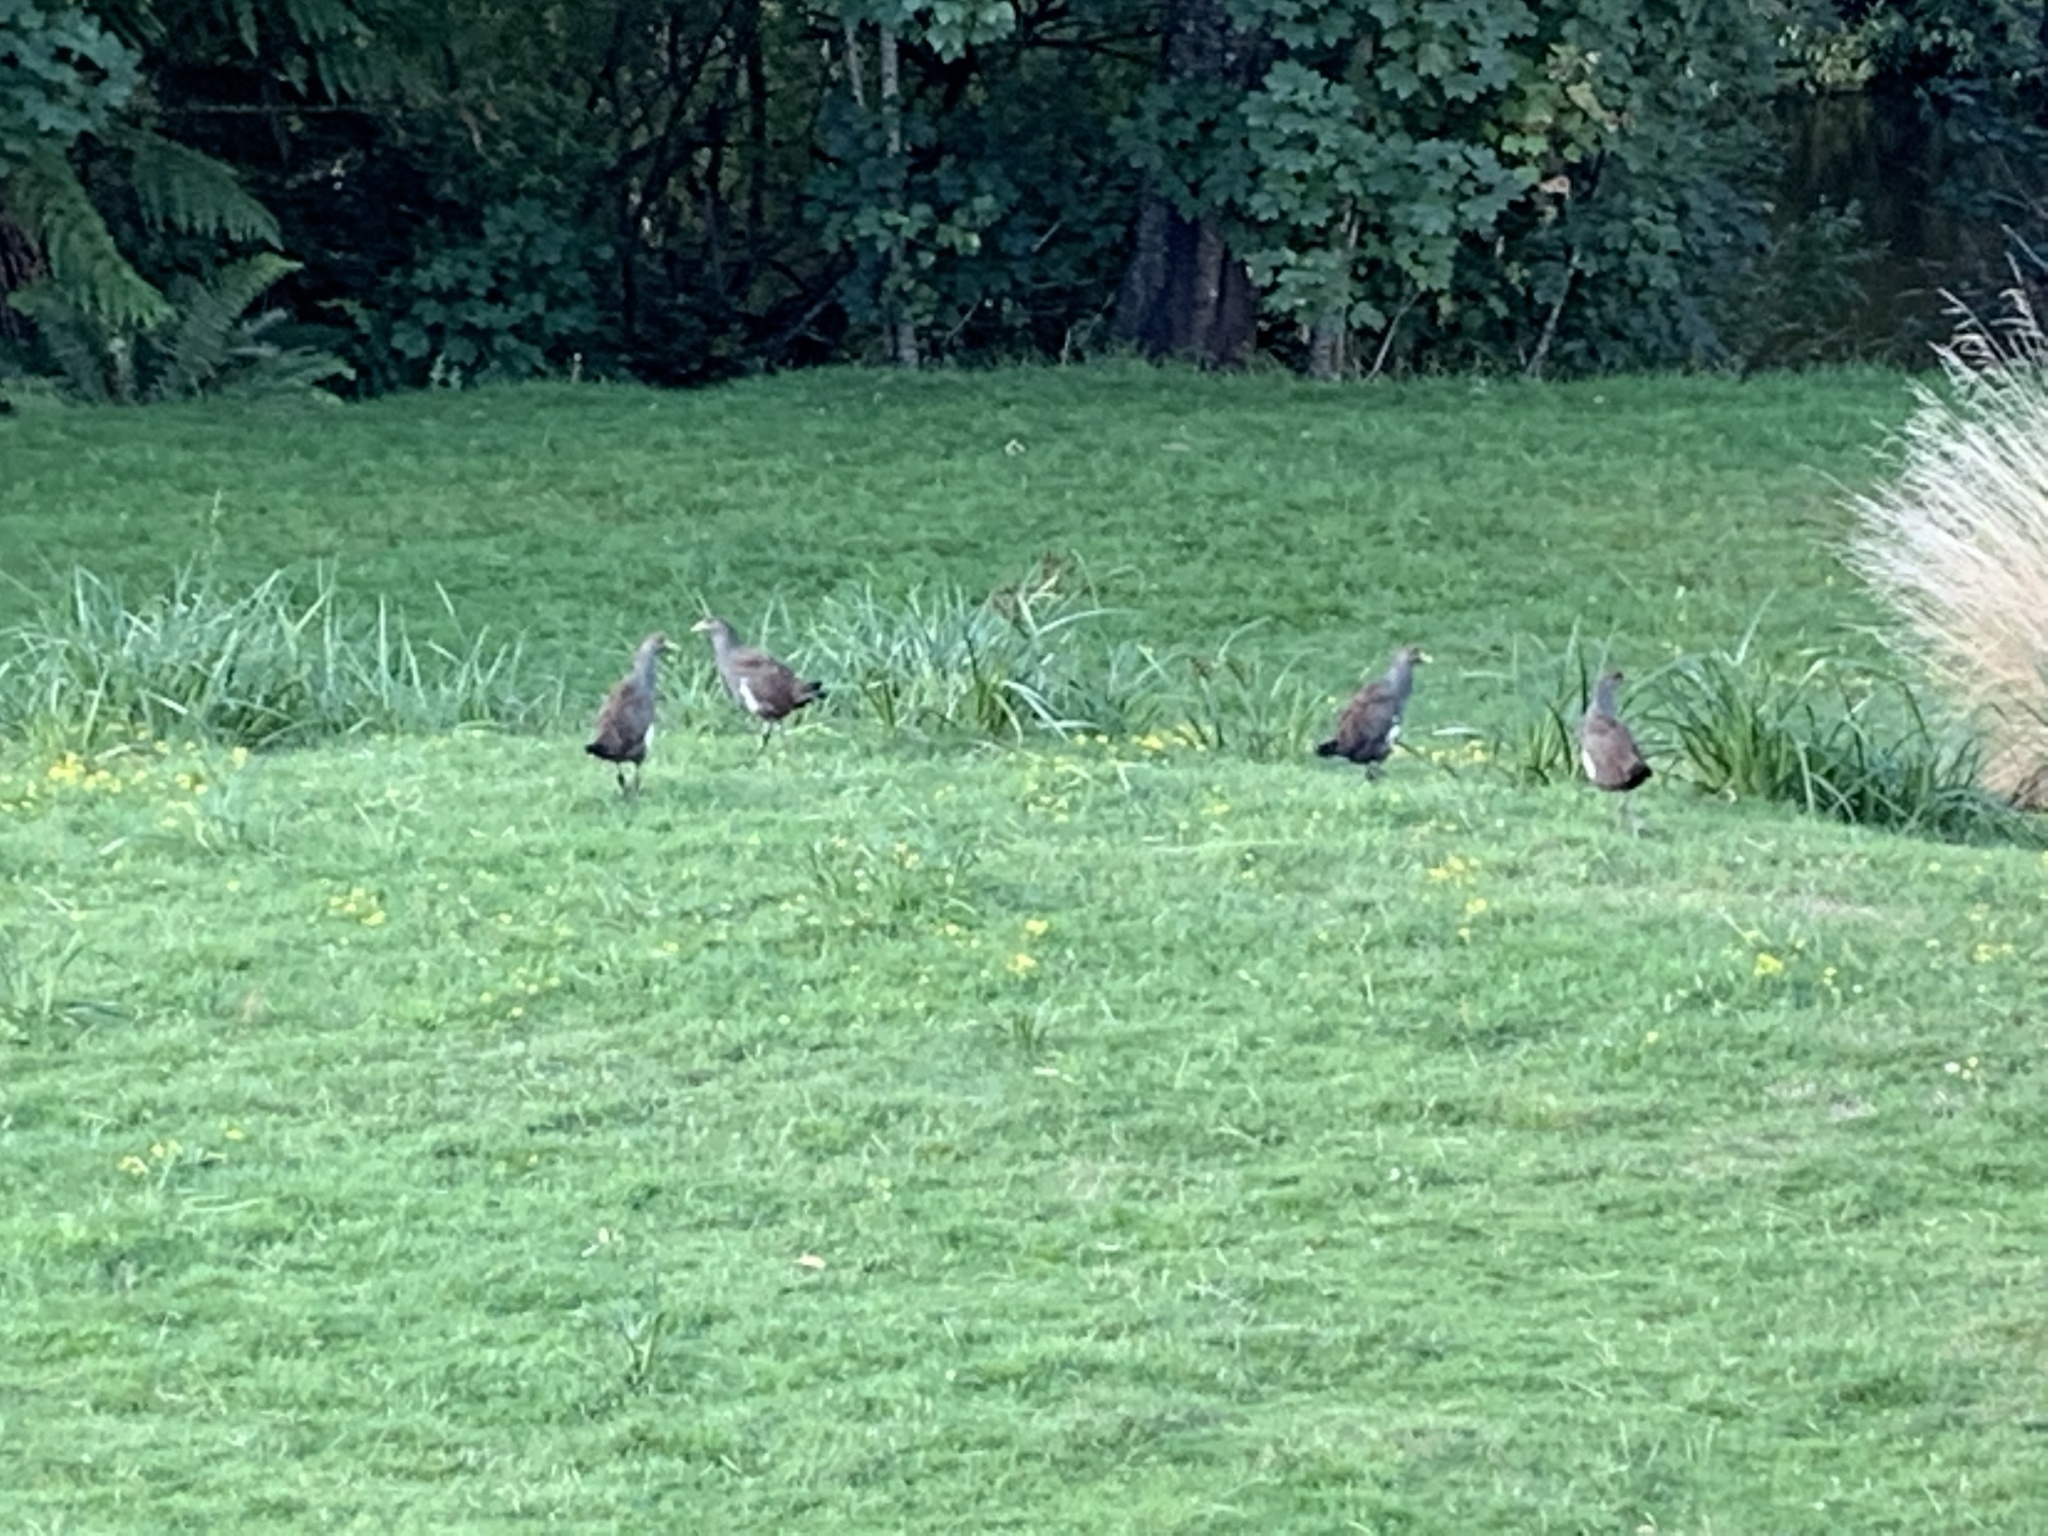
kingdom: Animalia
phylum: Chordata
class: Aves
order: Gruiformes
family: Rallidae
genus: Gallinula
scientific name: Gallinula mortierii
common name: Tasmanian nativehen
